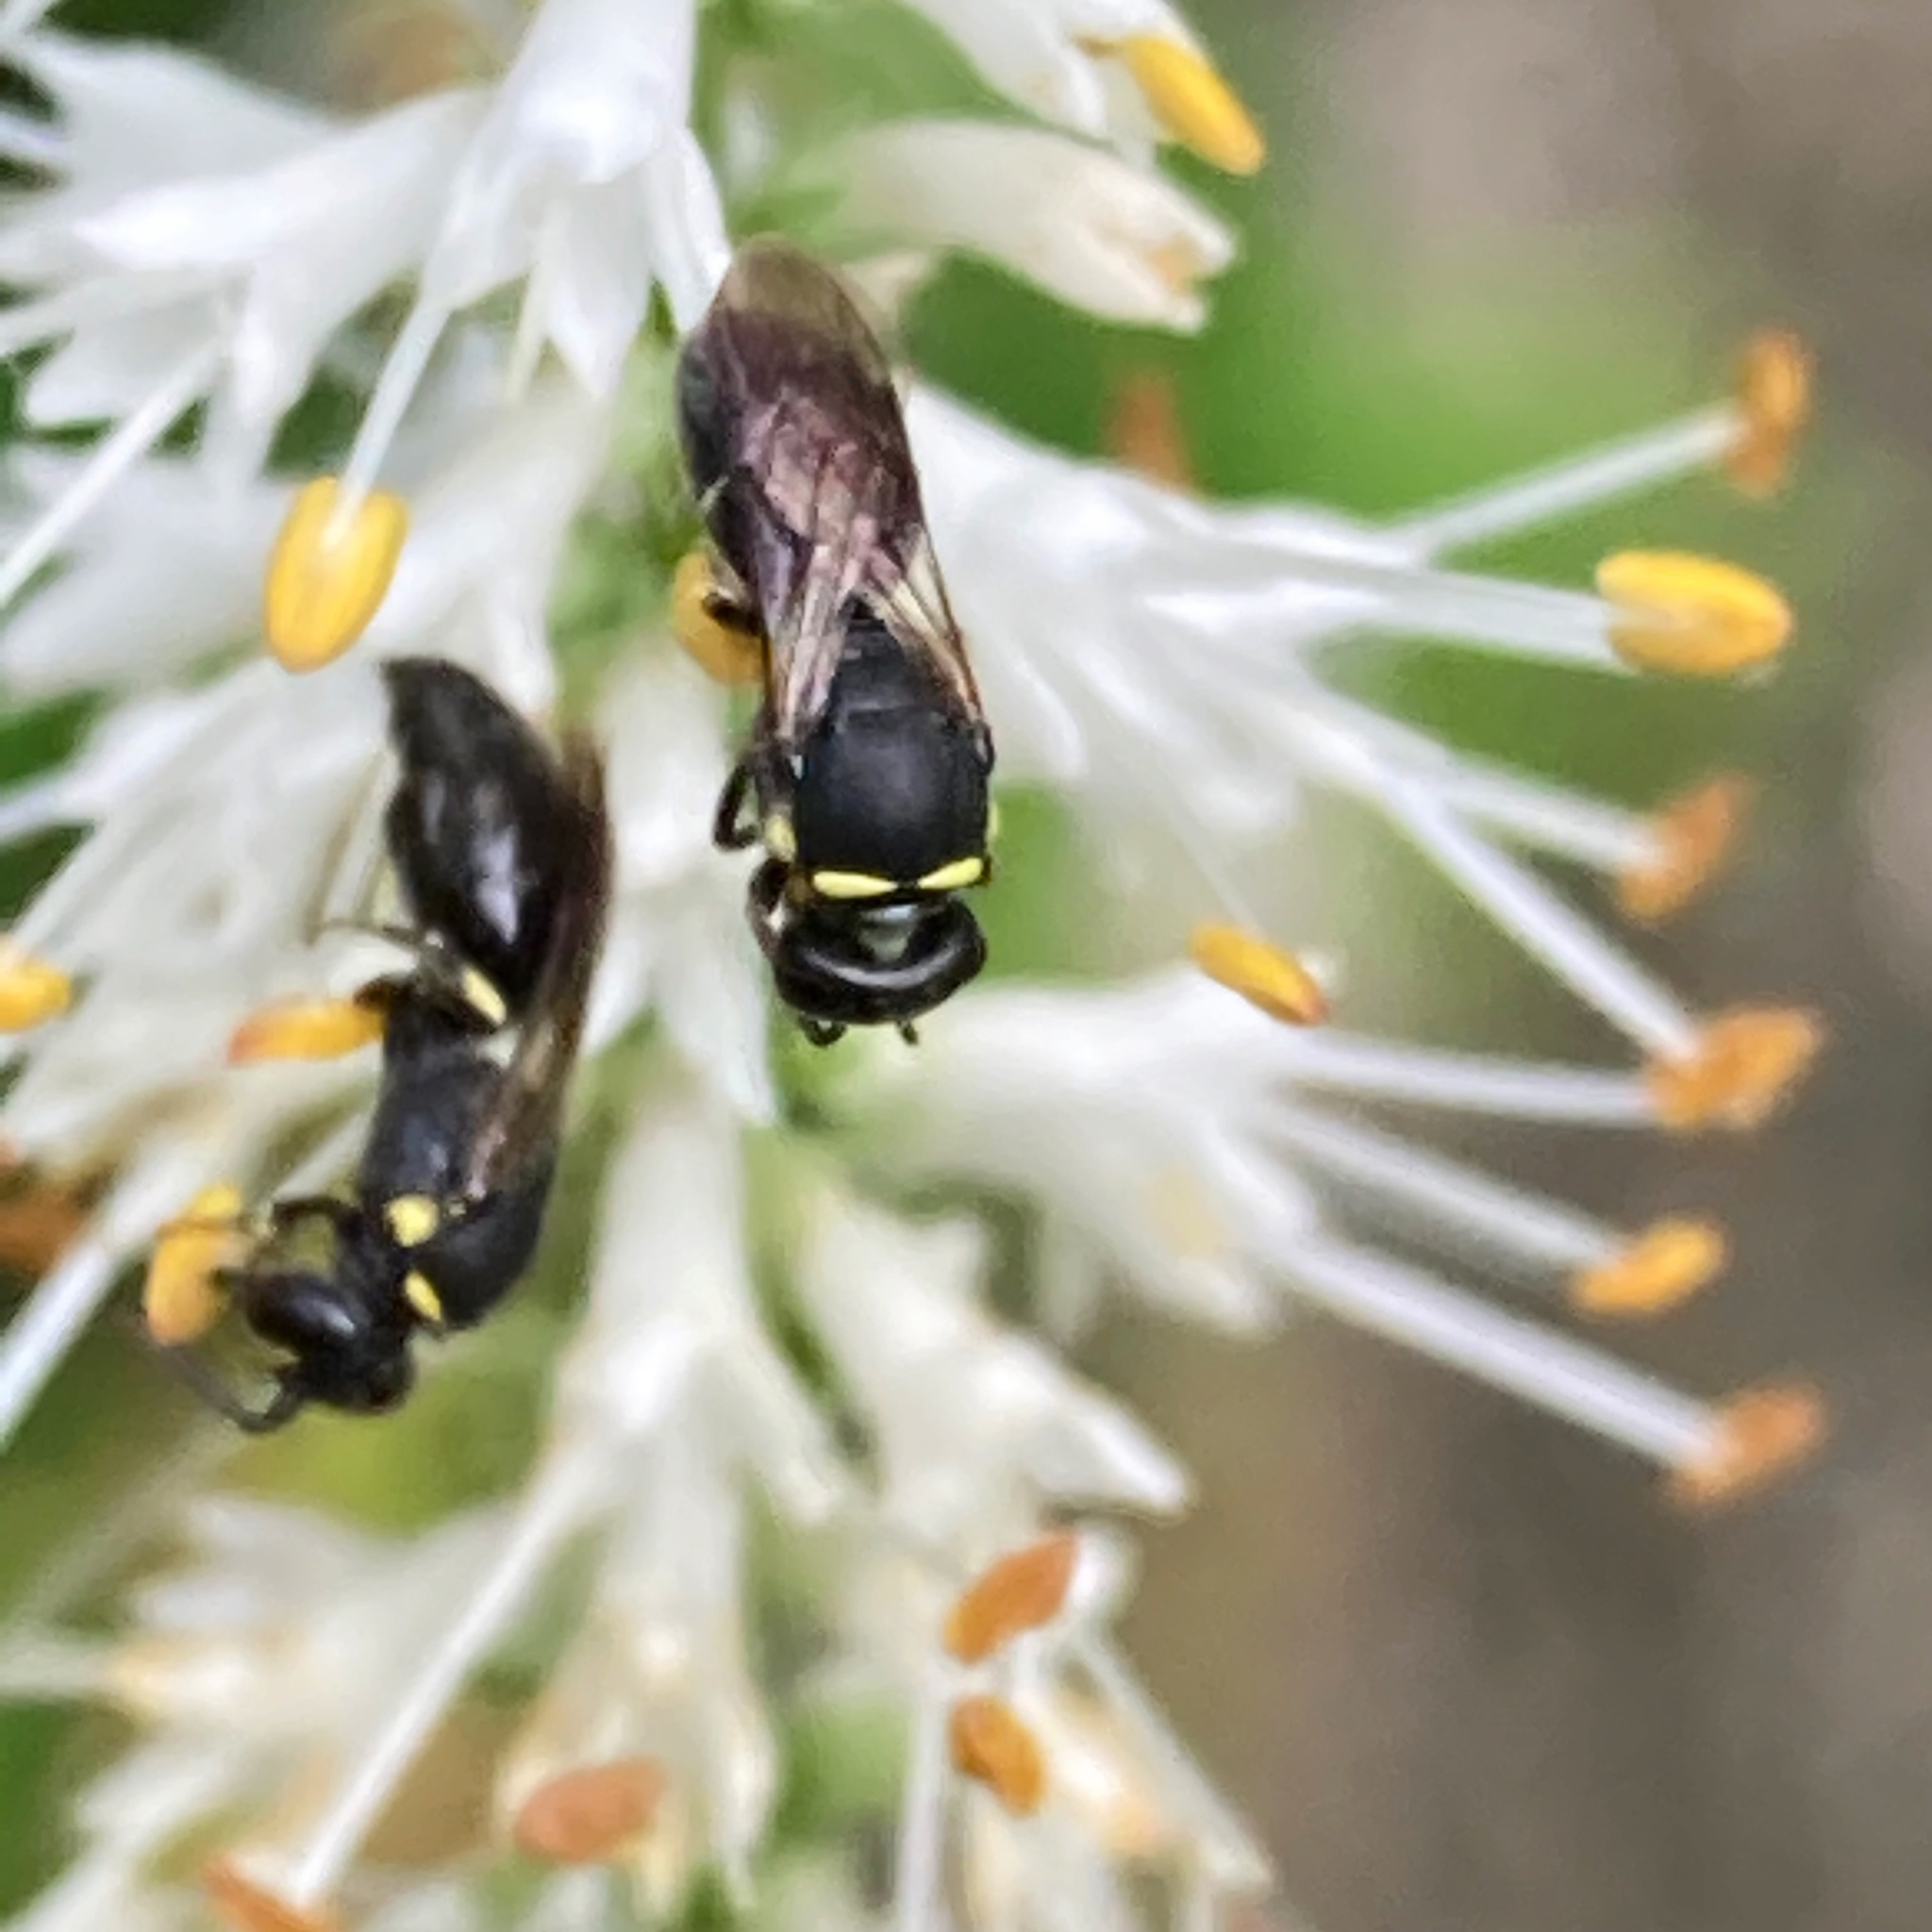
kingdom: Animalia
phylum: Arthropoda
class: Insecta
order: Hymenoptera
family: Colletidae
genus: Hylaeus
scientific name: Hylaeus modestus
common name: Yellow-faced bee
